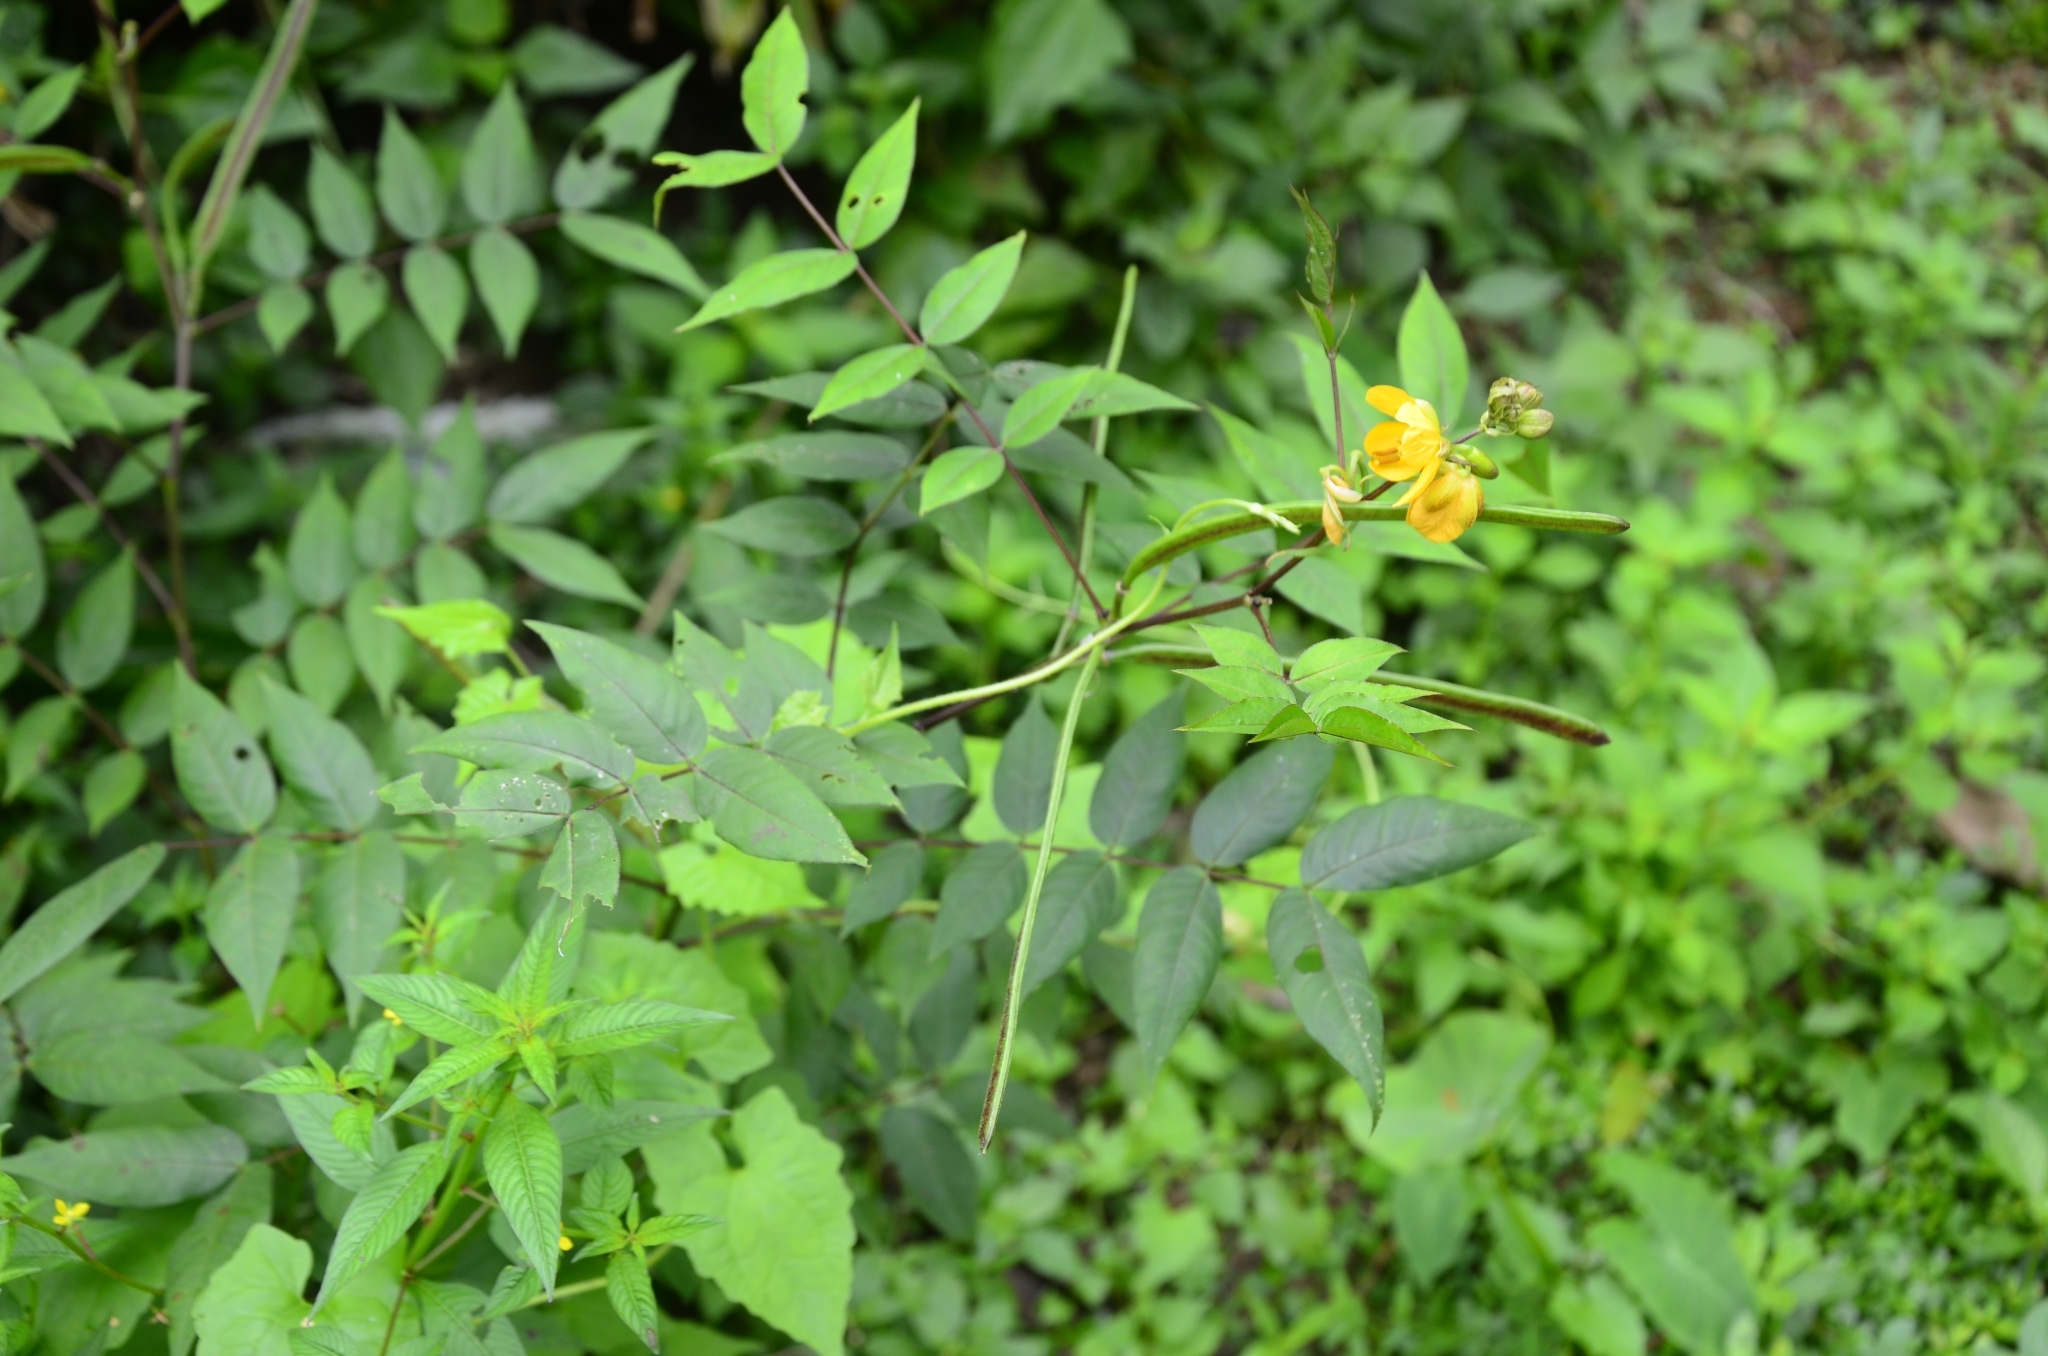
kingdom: Plantae
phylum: Tracheophyta
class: Magnoliopsida
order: Fabales
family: Fabaceae
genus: Senna
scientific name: Senna occidentalis
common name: Septicweed
